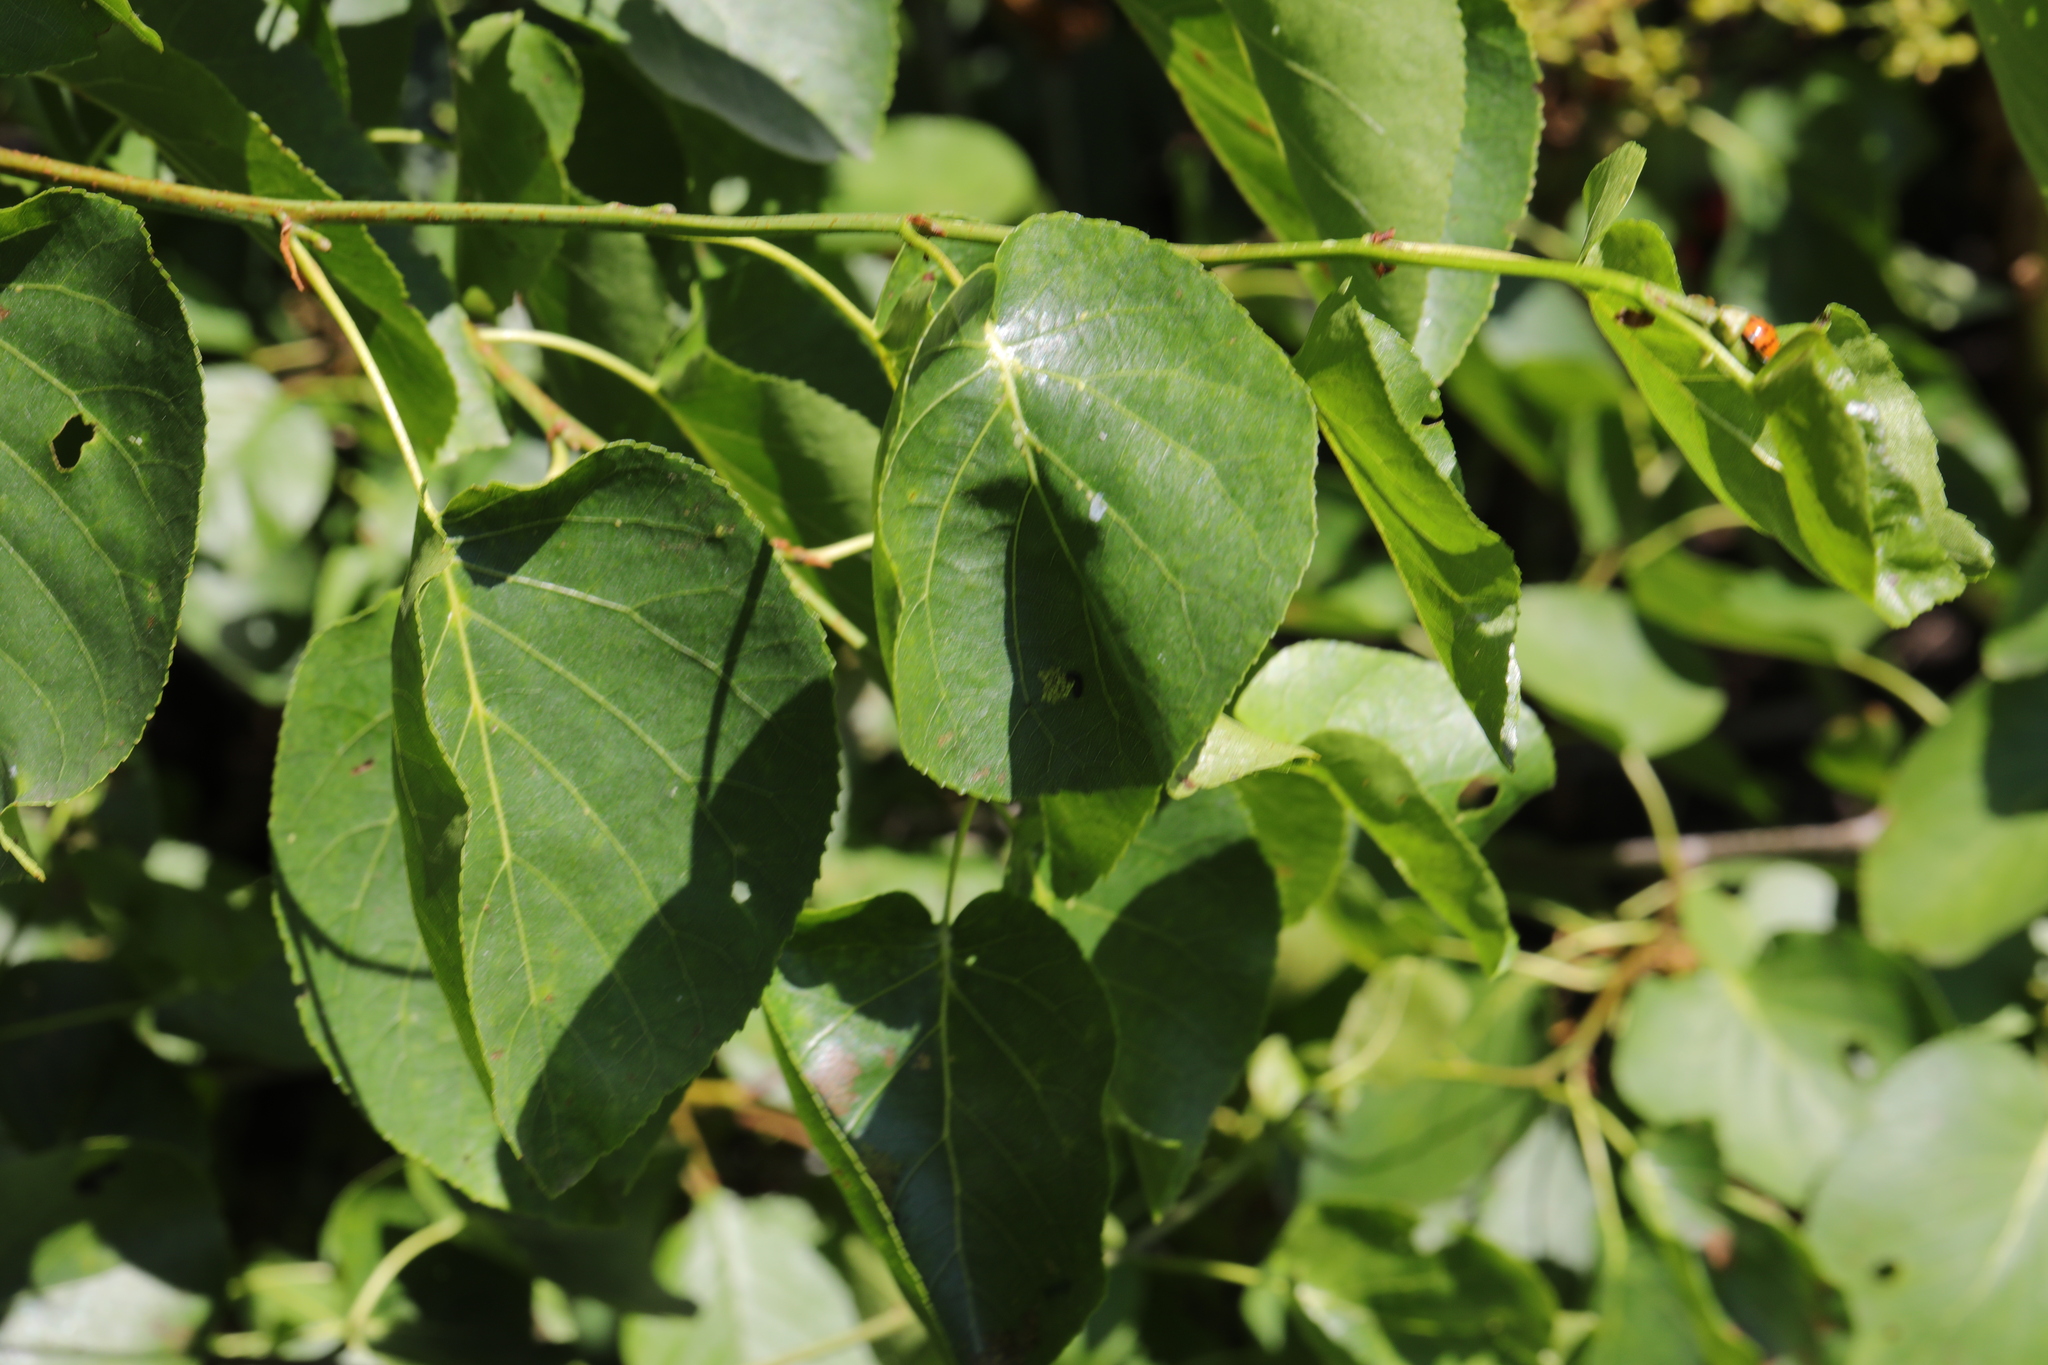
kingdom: Plantae
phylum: Tracheophyta
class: Magnoliopsida
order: Fagales
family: Betulaceae
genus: Alnus
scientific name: Alnus cordata
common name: Italian alder
